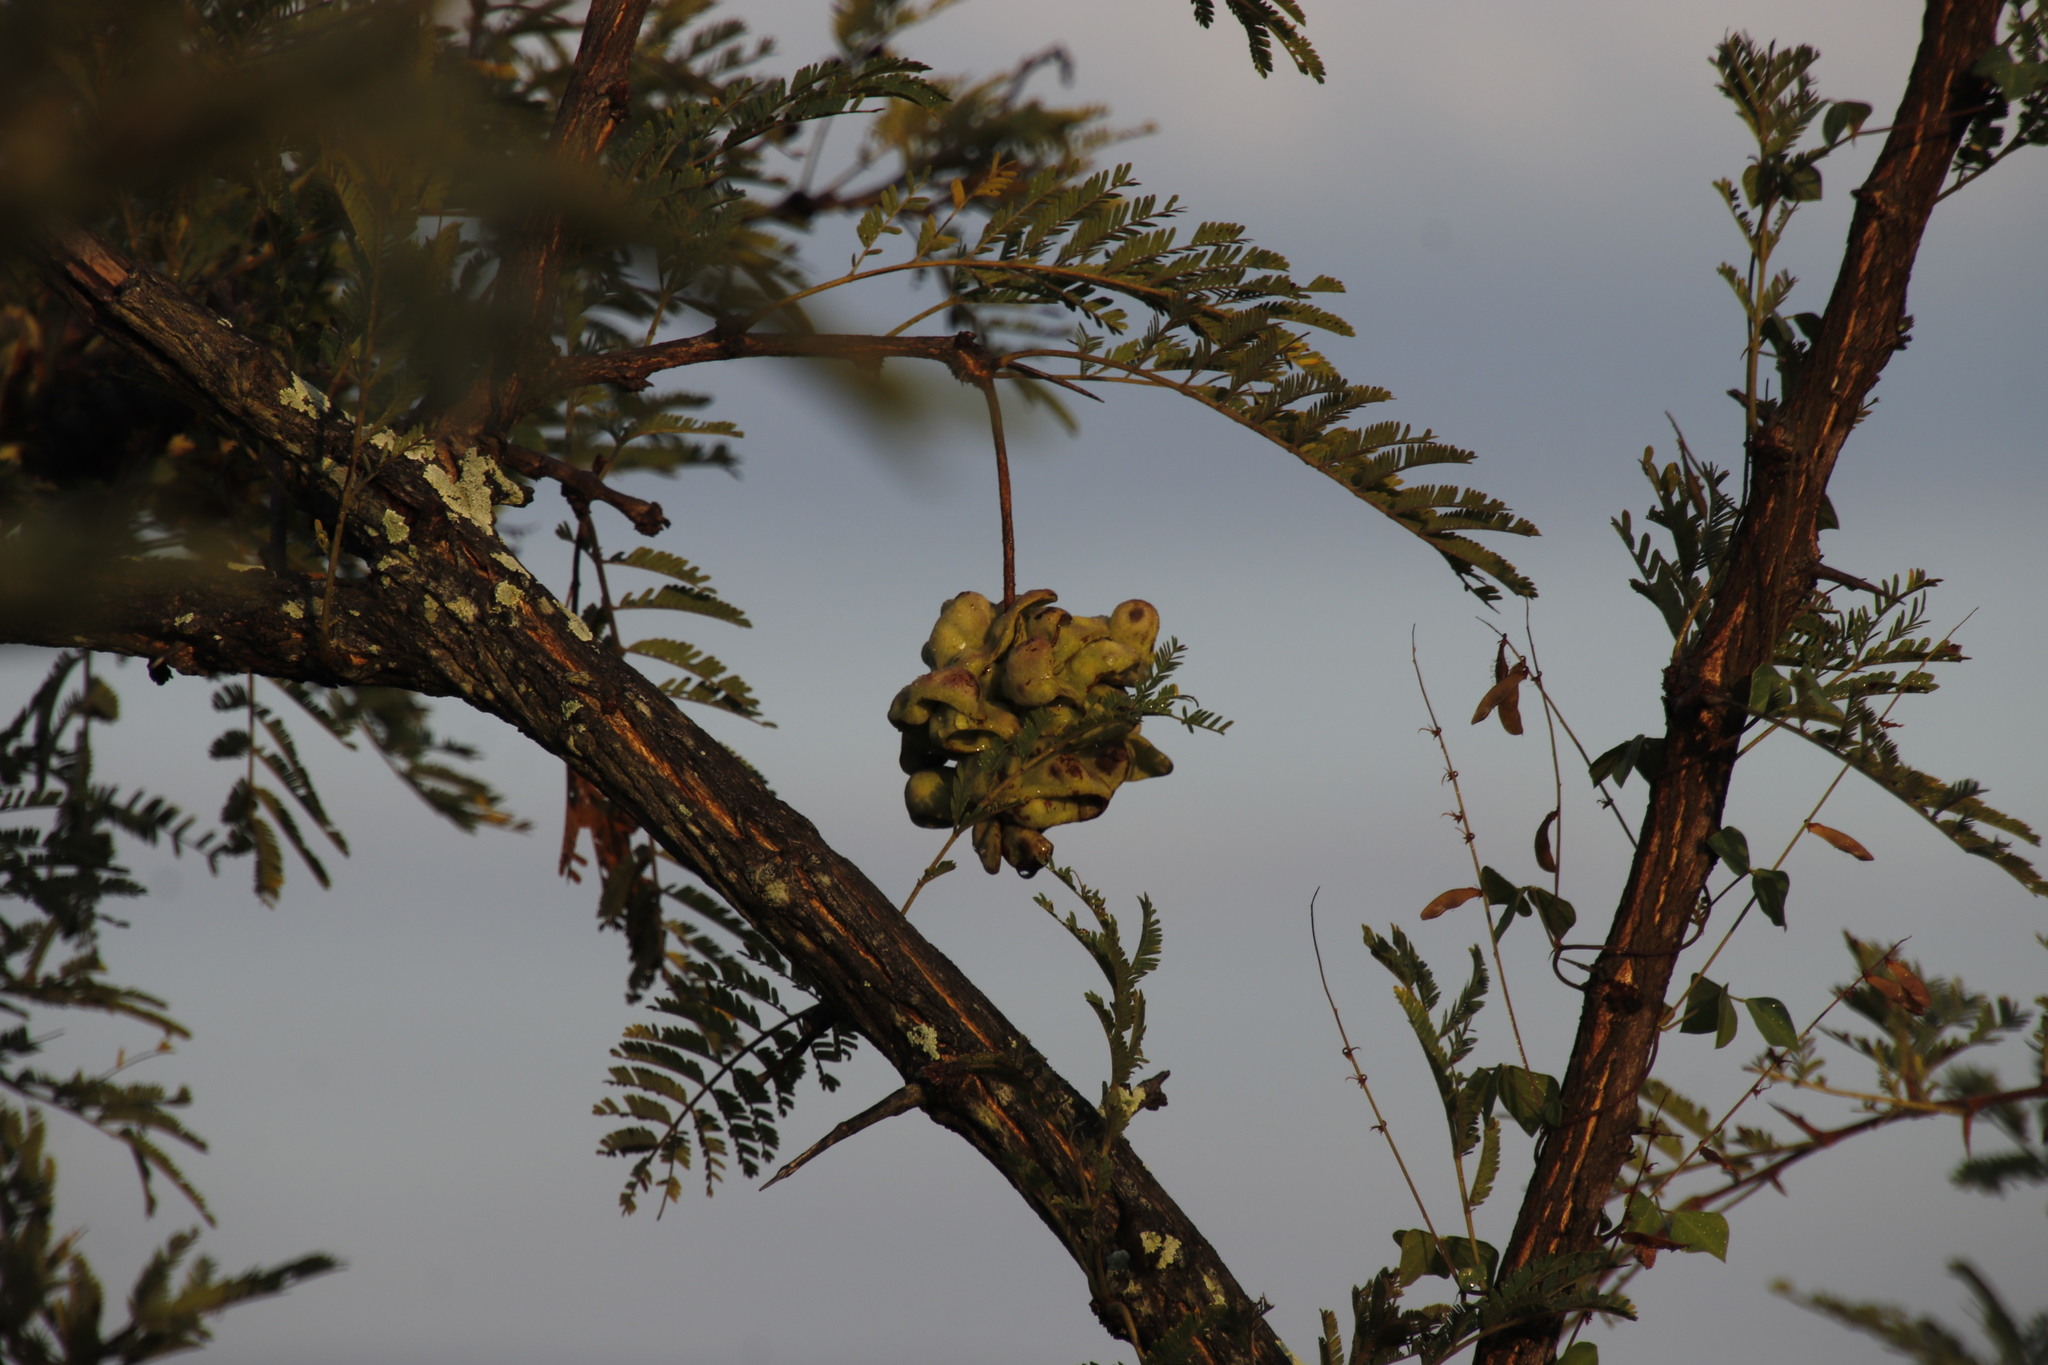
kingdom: Plantae
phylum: Tracheophyta
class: Magnoliopsida
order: Fabales
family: Fabaceae
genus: Dichrostachys
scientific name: Dichrostachys cinerea
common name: Sicklebush
